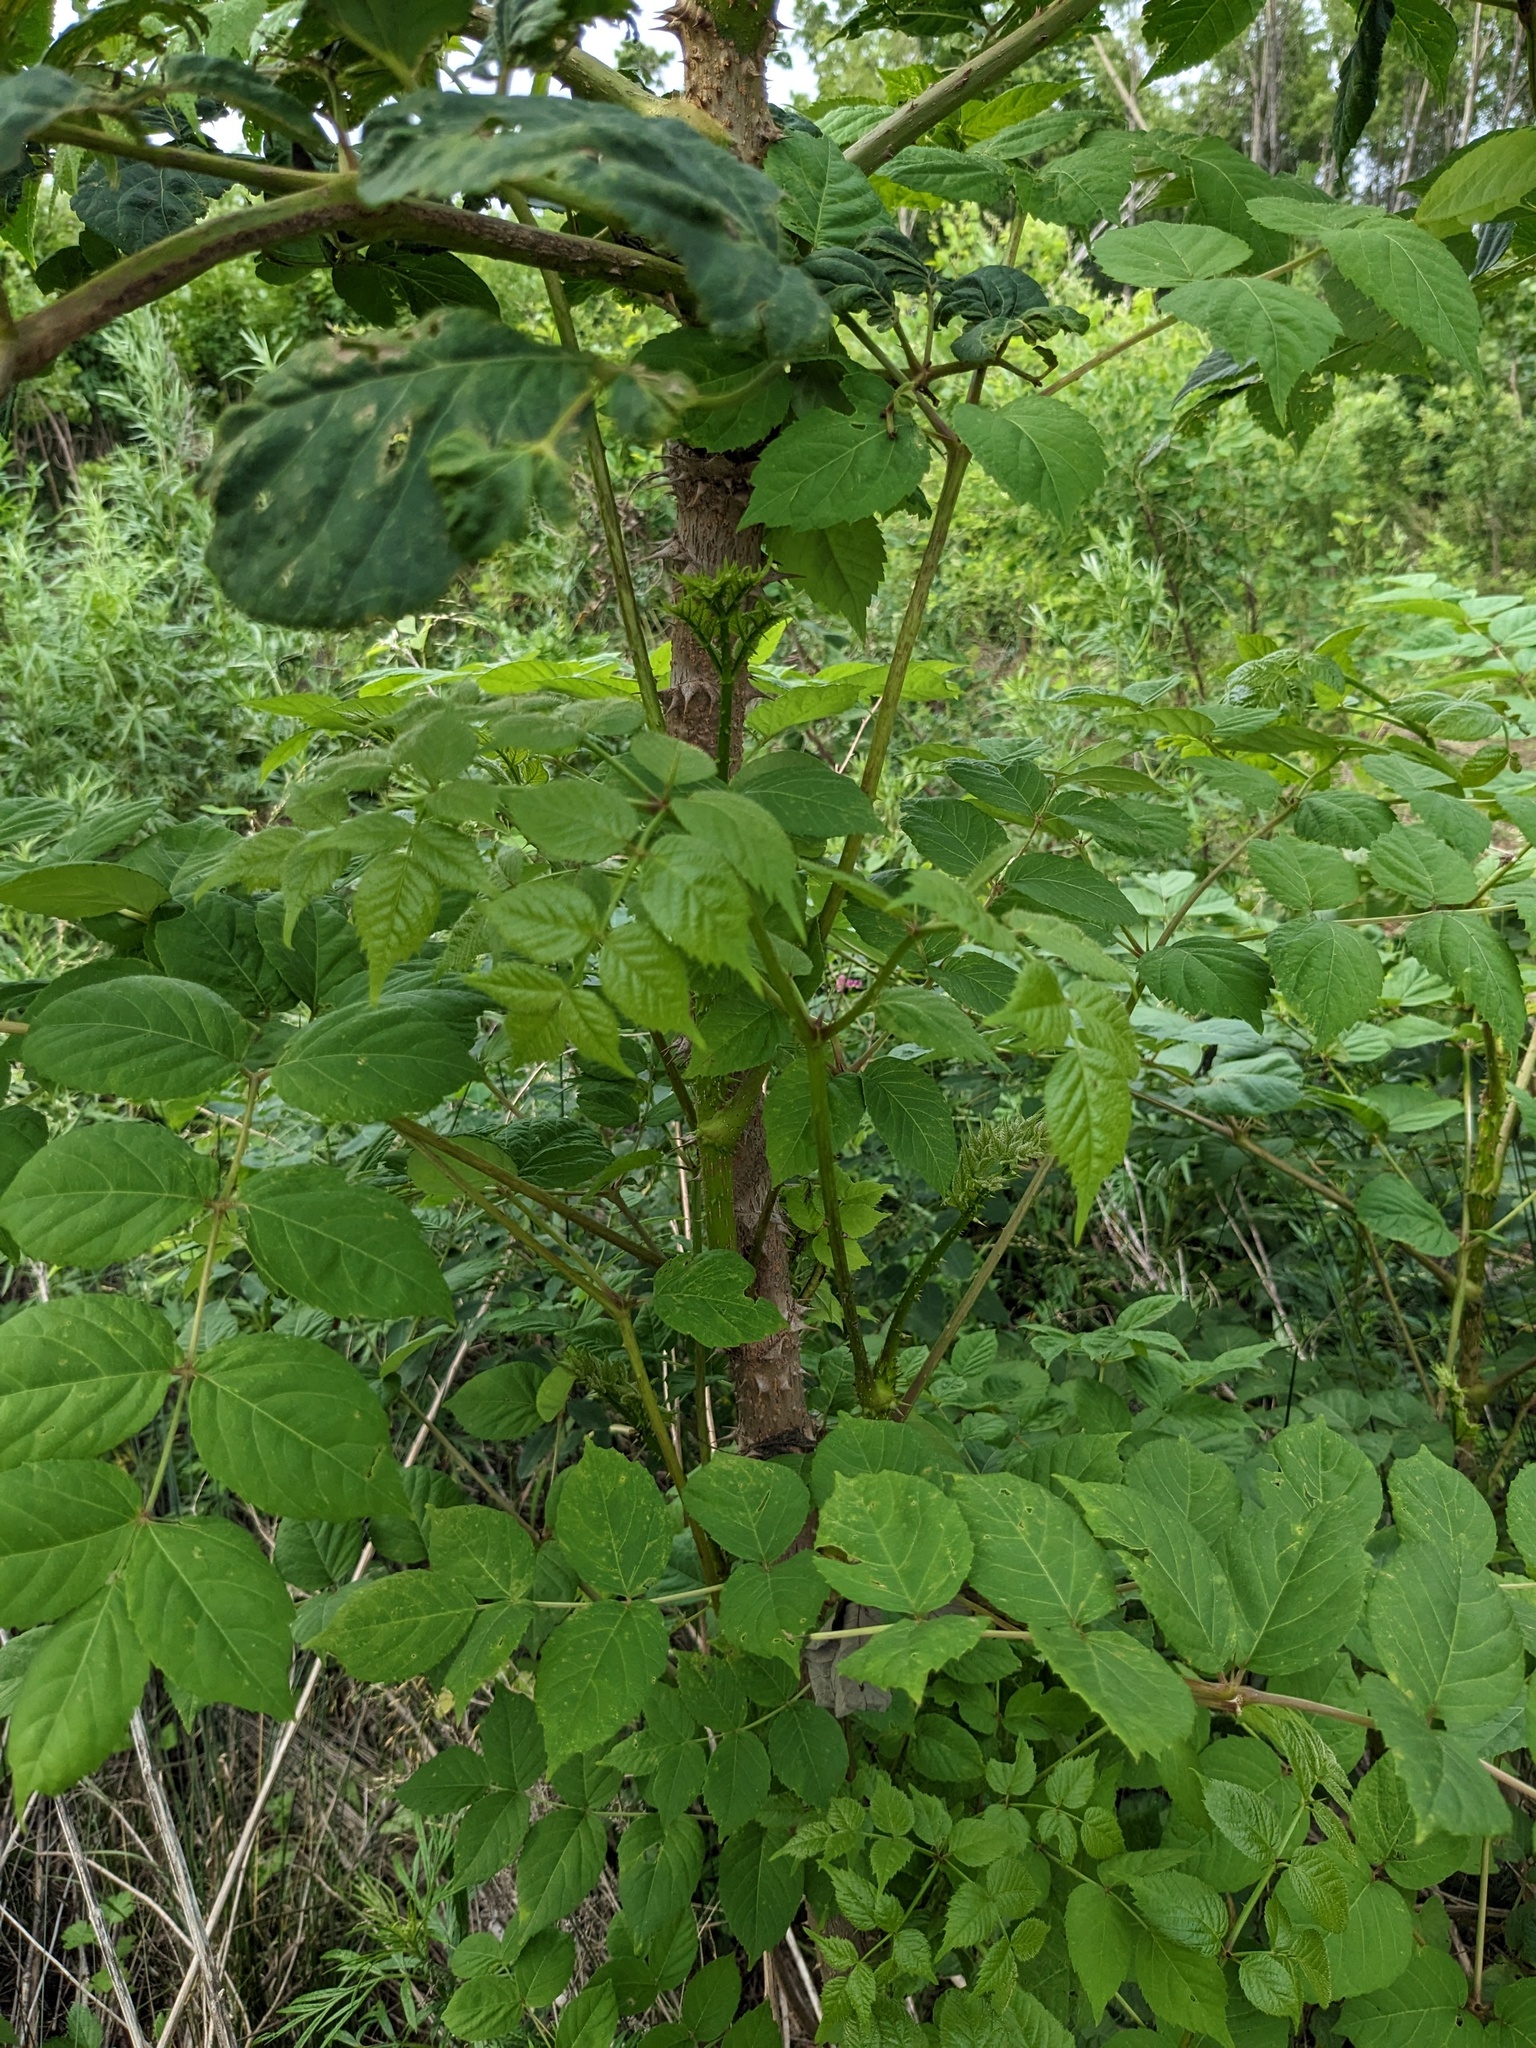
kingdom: Plantae
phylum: Tracheophyta
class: Magnoliopsida
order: Apiales
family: Araliaceae
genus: Aralia
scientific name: Aralia elata
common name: Japanese angelica-tree
